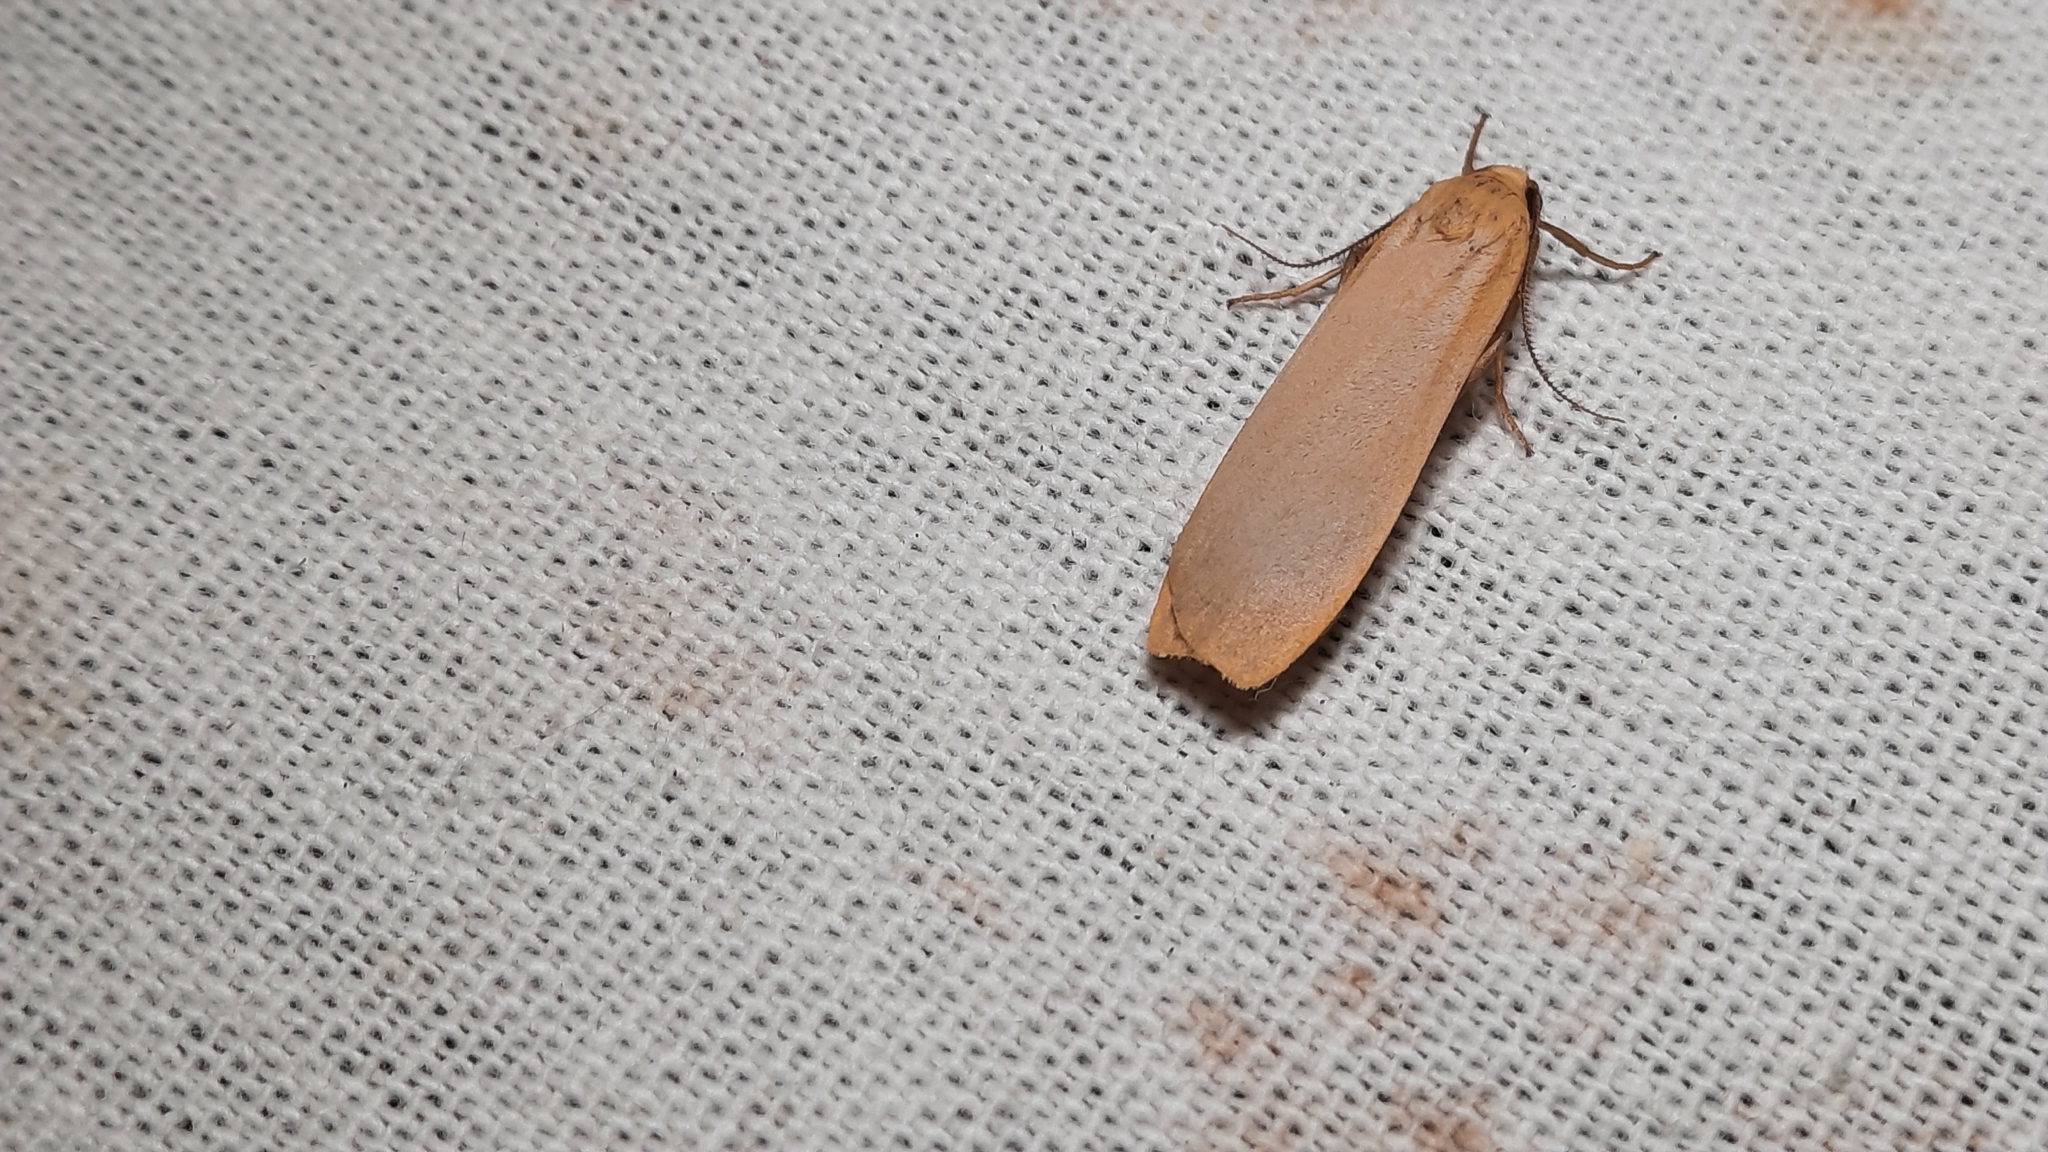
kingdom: Animalia
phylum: Arthropoda
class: Insecta
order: Lepidoptera
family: Erebidae
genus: Katha
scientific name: Katha depressa
